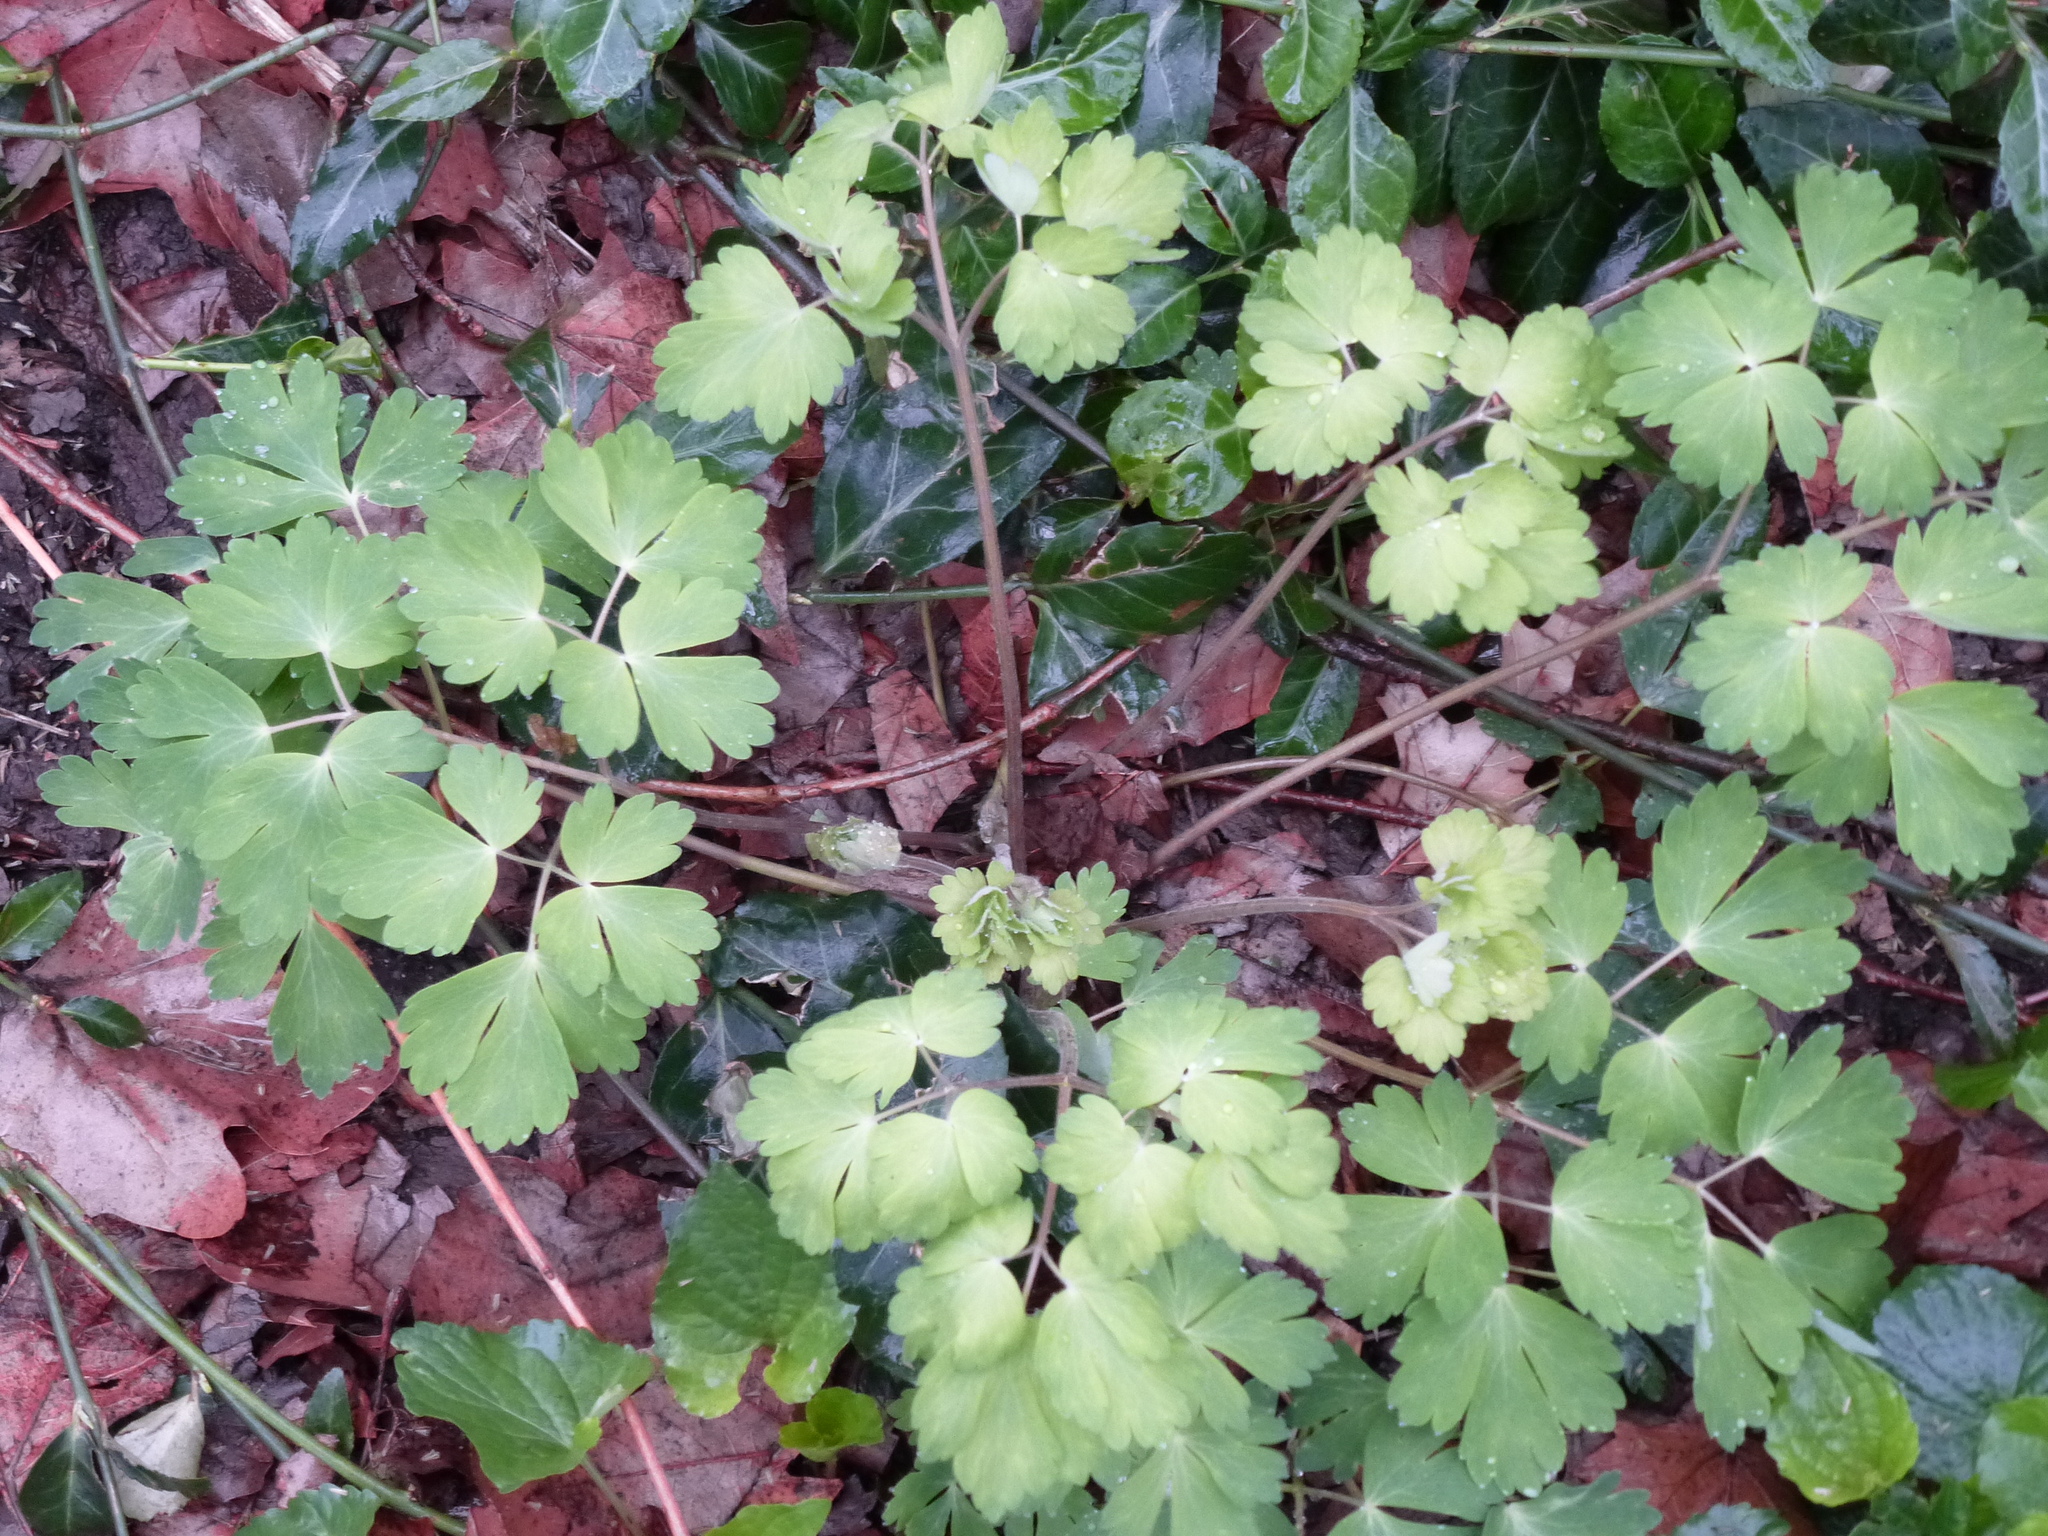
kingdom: Plantae
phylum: Tracheophyta
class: Magnoliopsida
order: Ranunculales
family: Ranunculaceae
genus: Aquilegia
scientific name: Aquilegia
